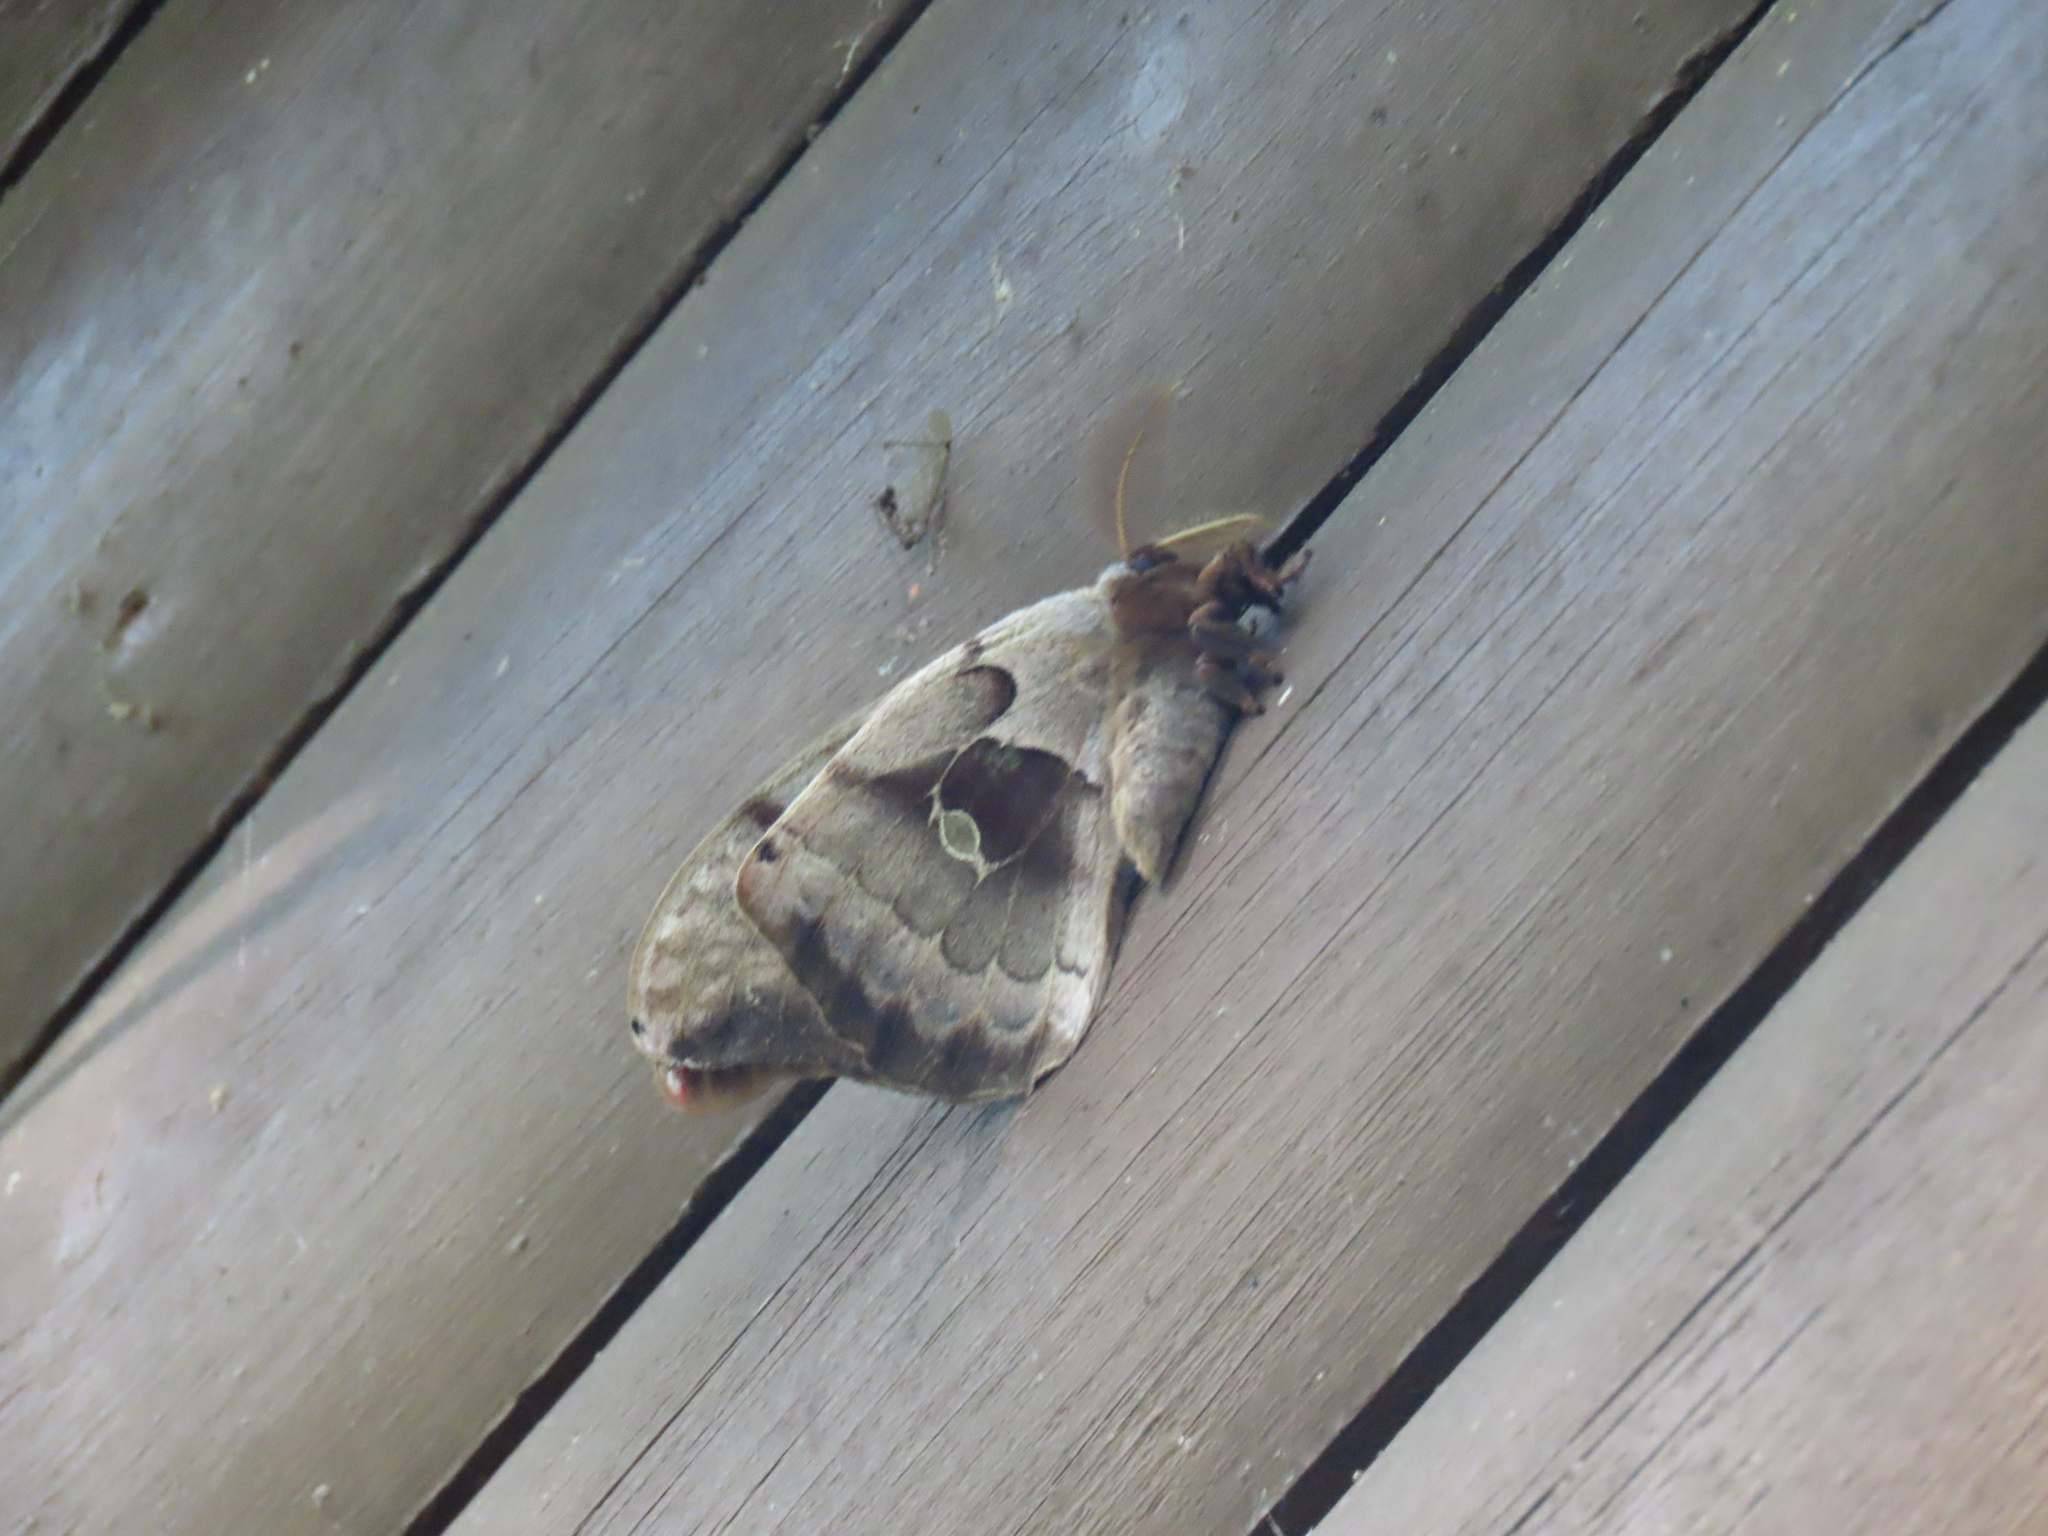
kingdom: Animalia
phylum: Arthropoda
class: Insecta
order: Lepidoptera
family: Saturniidae
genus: Antheraea
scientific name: Antheraea polyphemus
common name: Polyphemus moth
